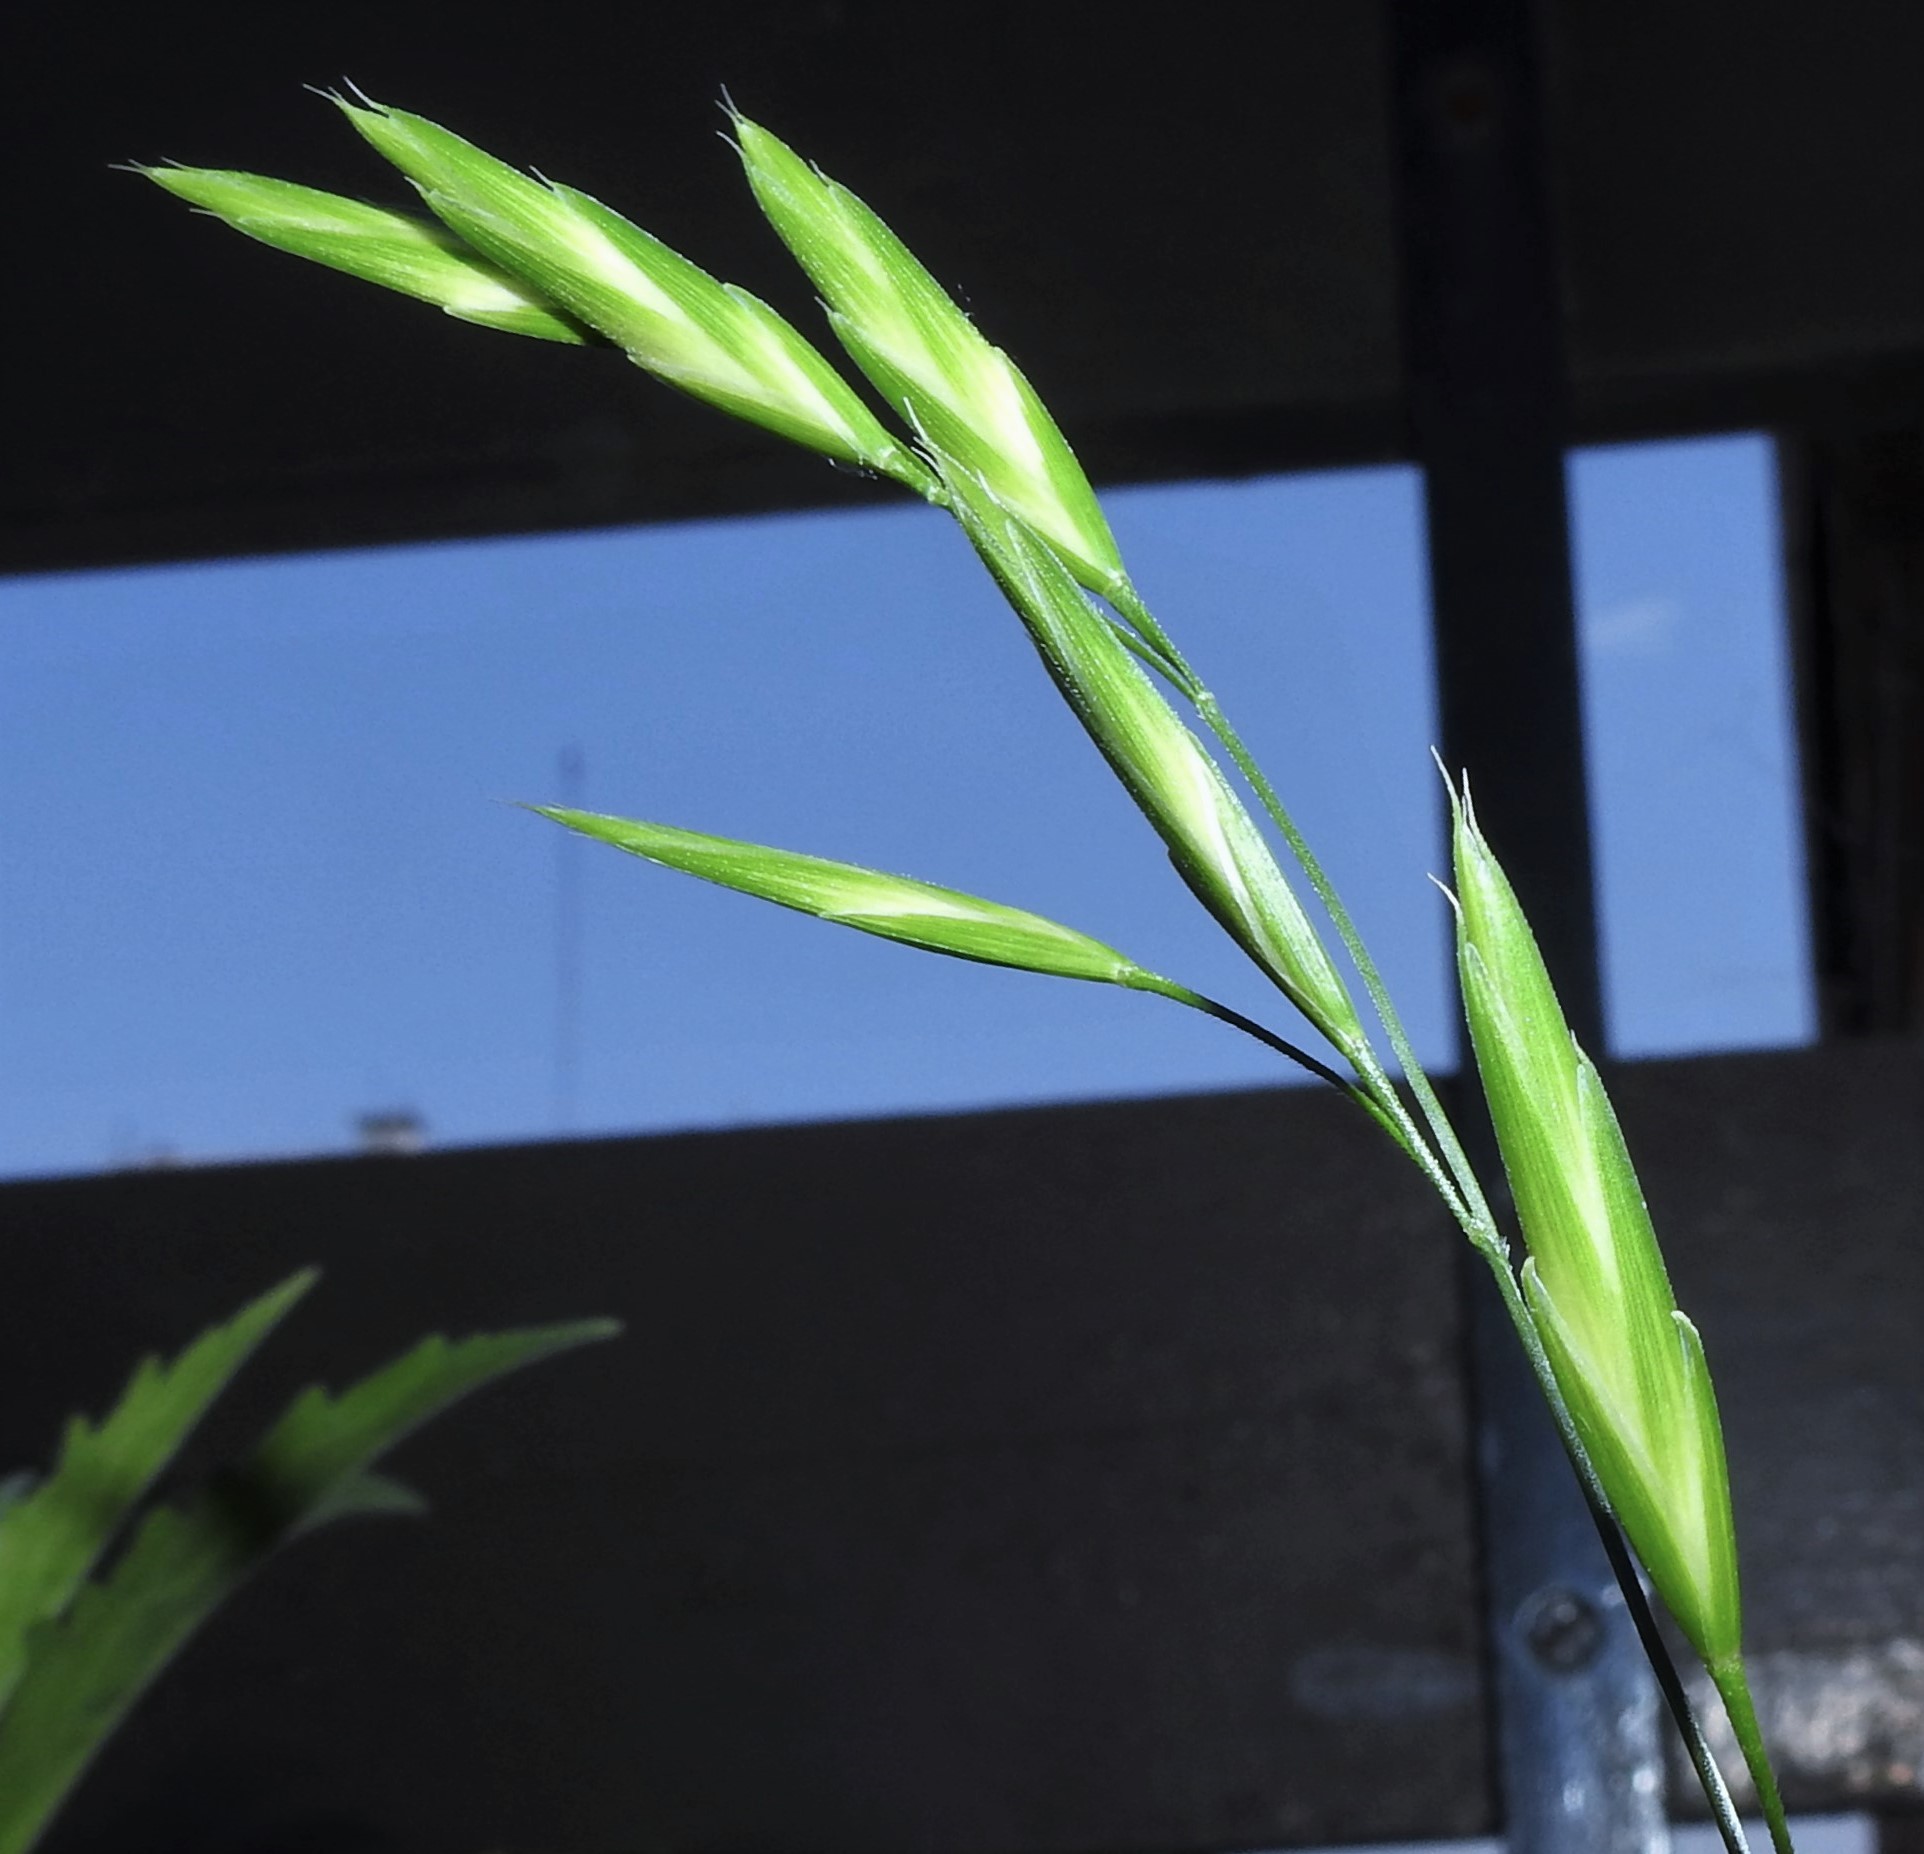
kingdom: Plantae
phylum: Tracheophyta
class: Liliopsida
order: Poales
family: Poaceae
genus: Bromus
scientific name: Bromus catharticus
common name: Rescuegrass
